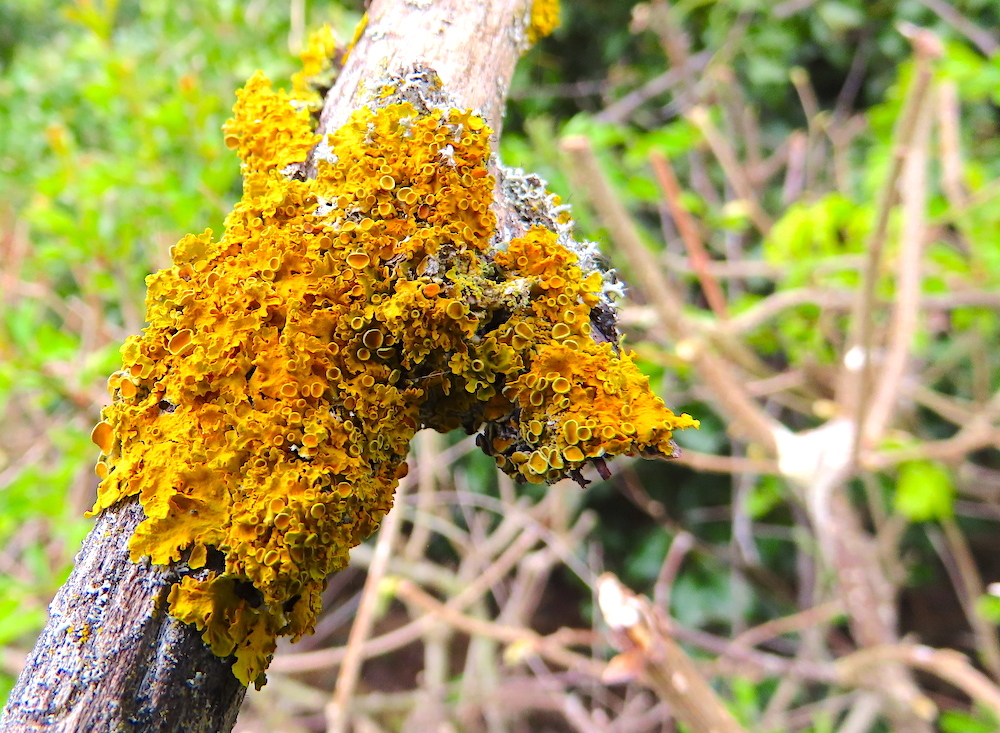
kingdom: Fungi
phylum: Ascomycota
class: Lecanoromycetes
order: Teloschistales
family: Teloschistaceae
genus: Xanthoria
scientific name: Xanthoria parietina
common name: Common orange lichen
